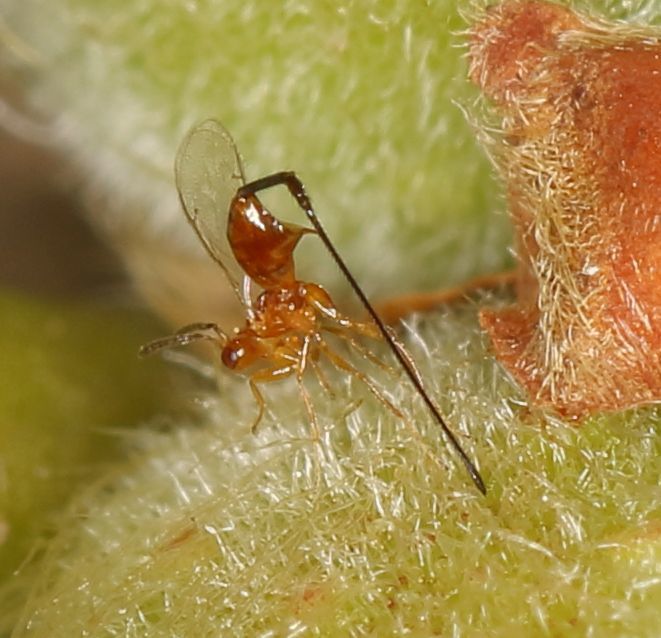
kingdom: Animalia
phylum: Arthropoda
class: Insecta
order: Hymenoptera
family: Agaonidae
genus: Philotrypesis
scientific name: Philotrypesis parca
